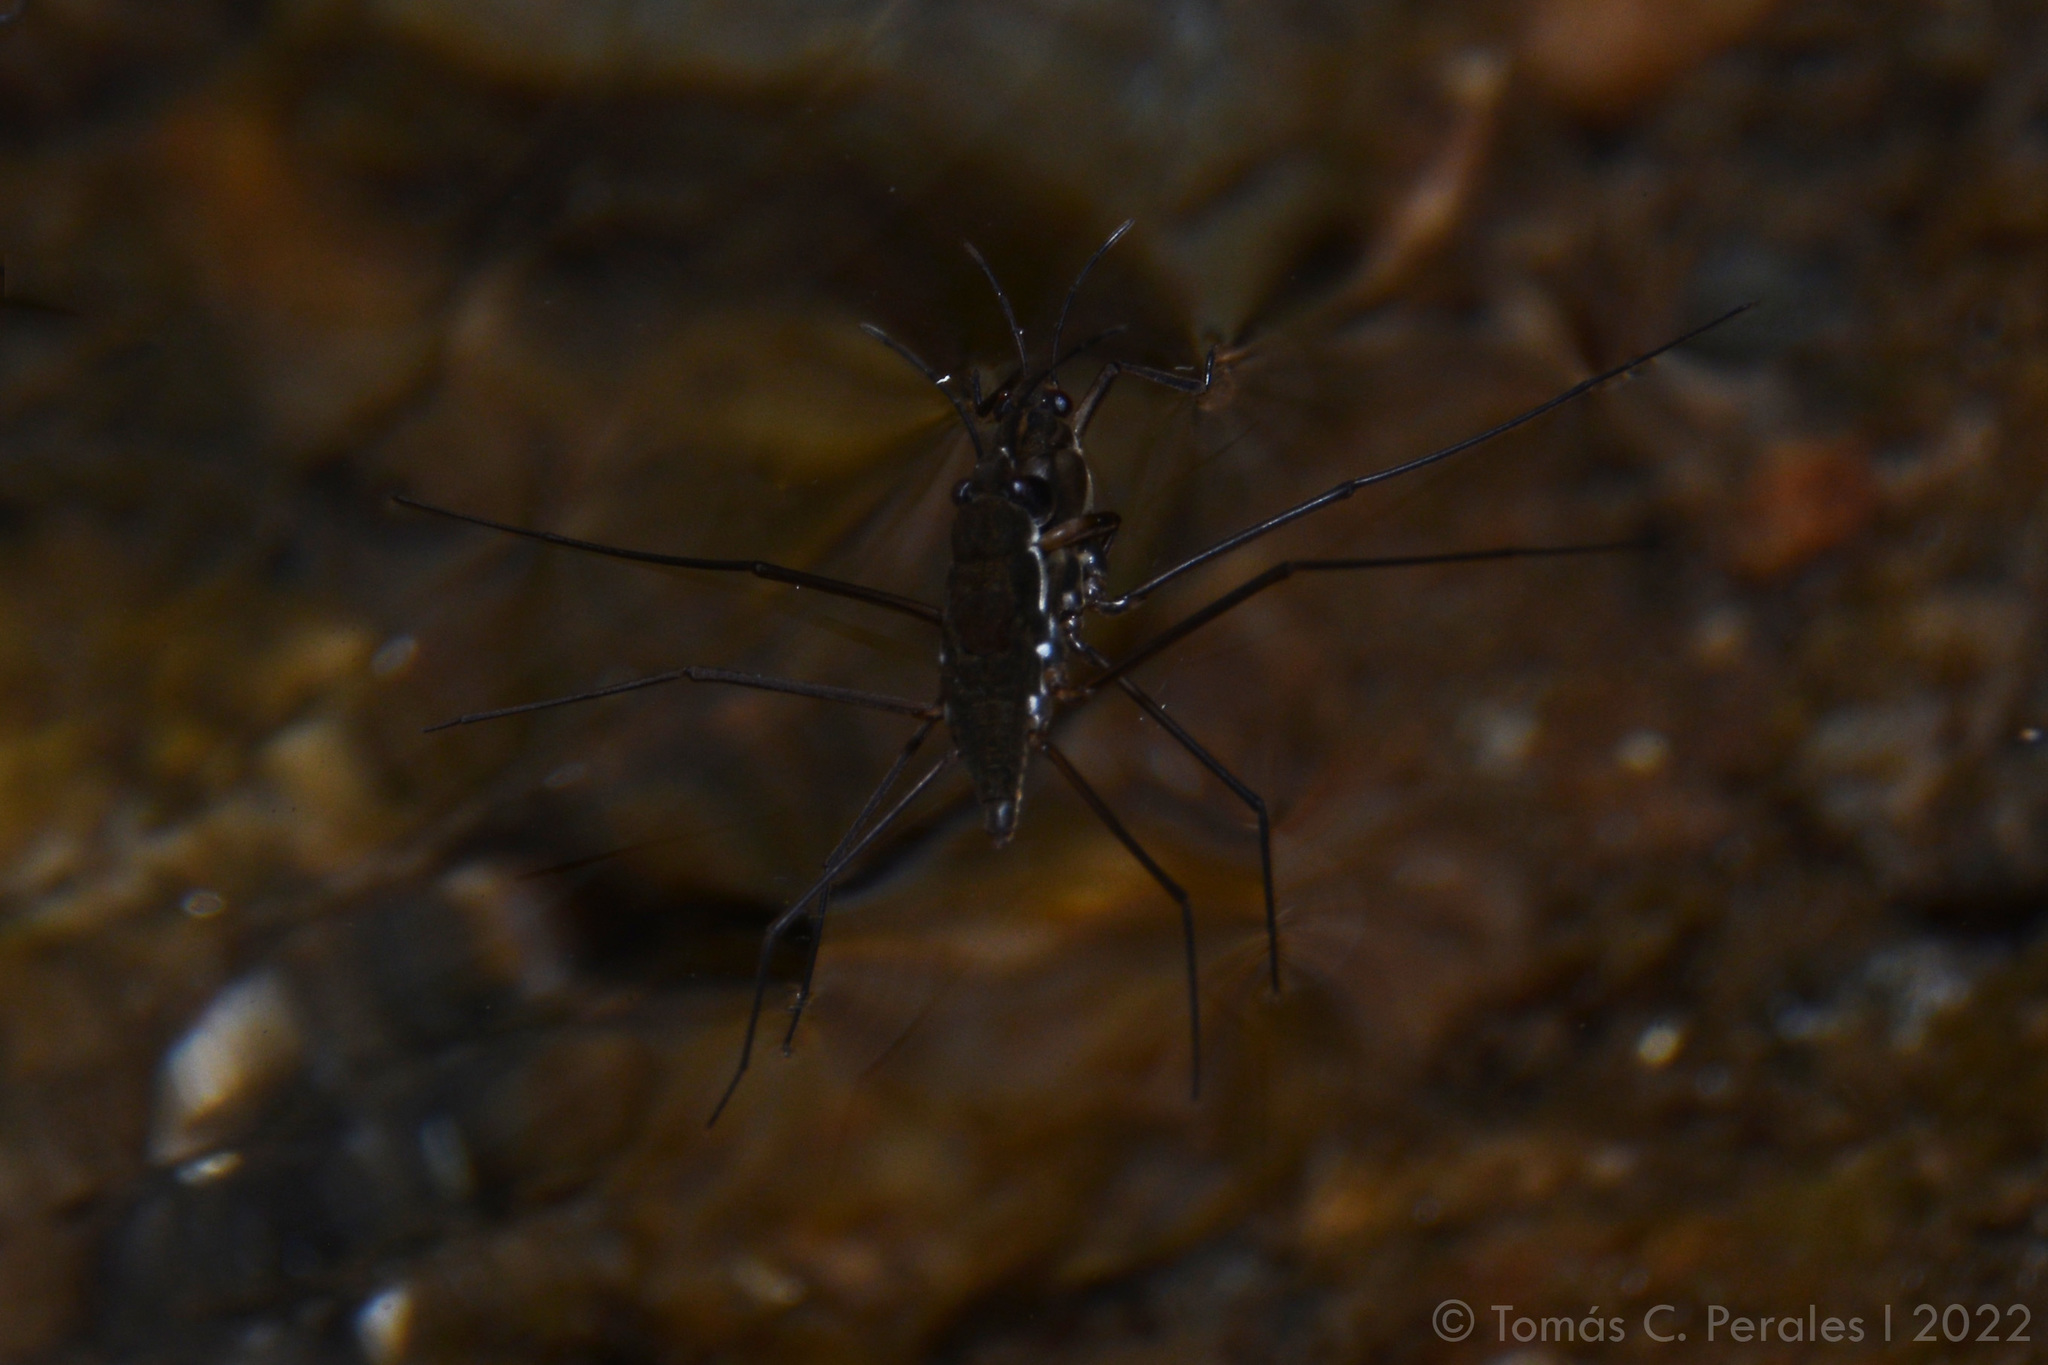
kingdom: Animalia
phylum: Arthropoda
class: Insecta
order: Hemiptera
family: Gerridae
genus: Eurygerris
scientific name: Eurygerris fuscinervis
